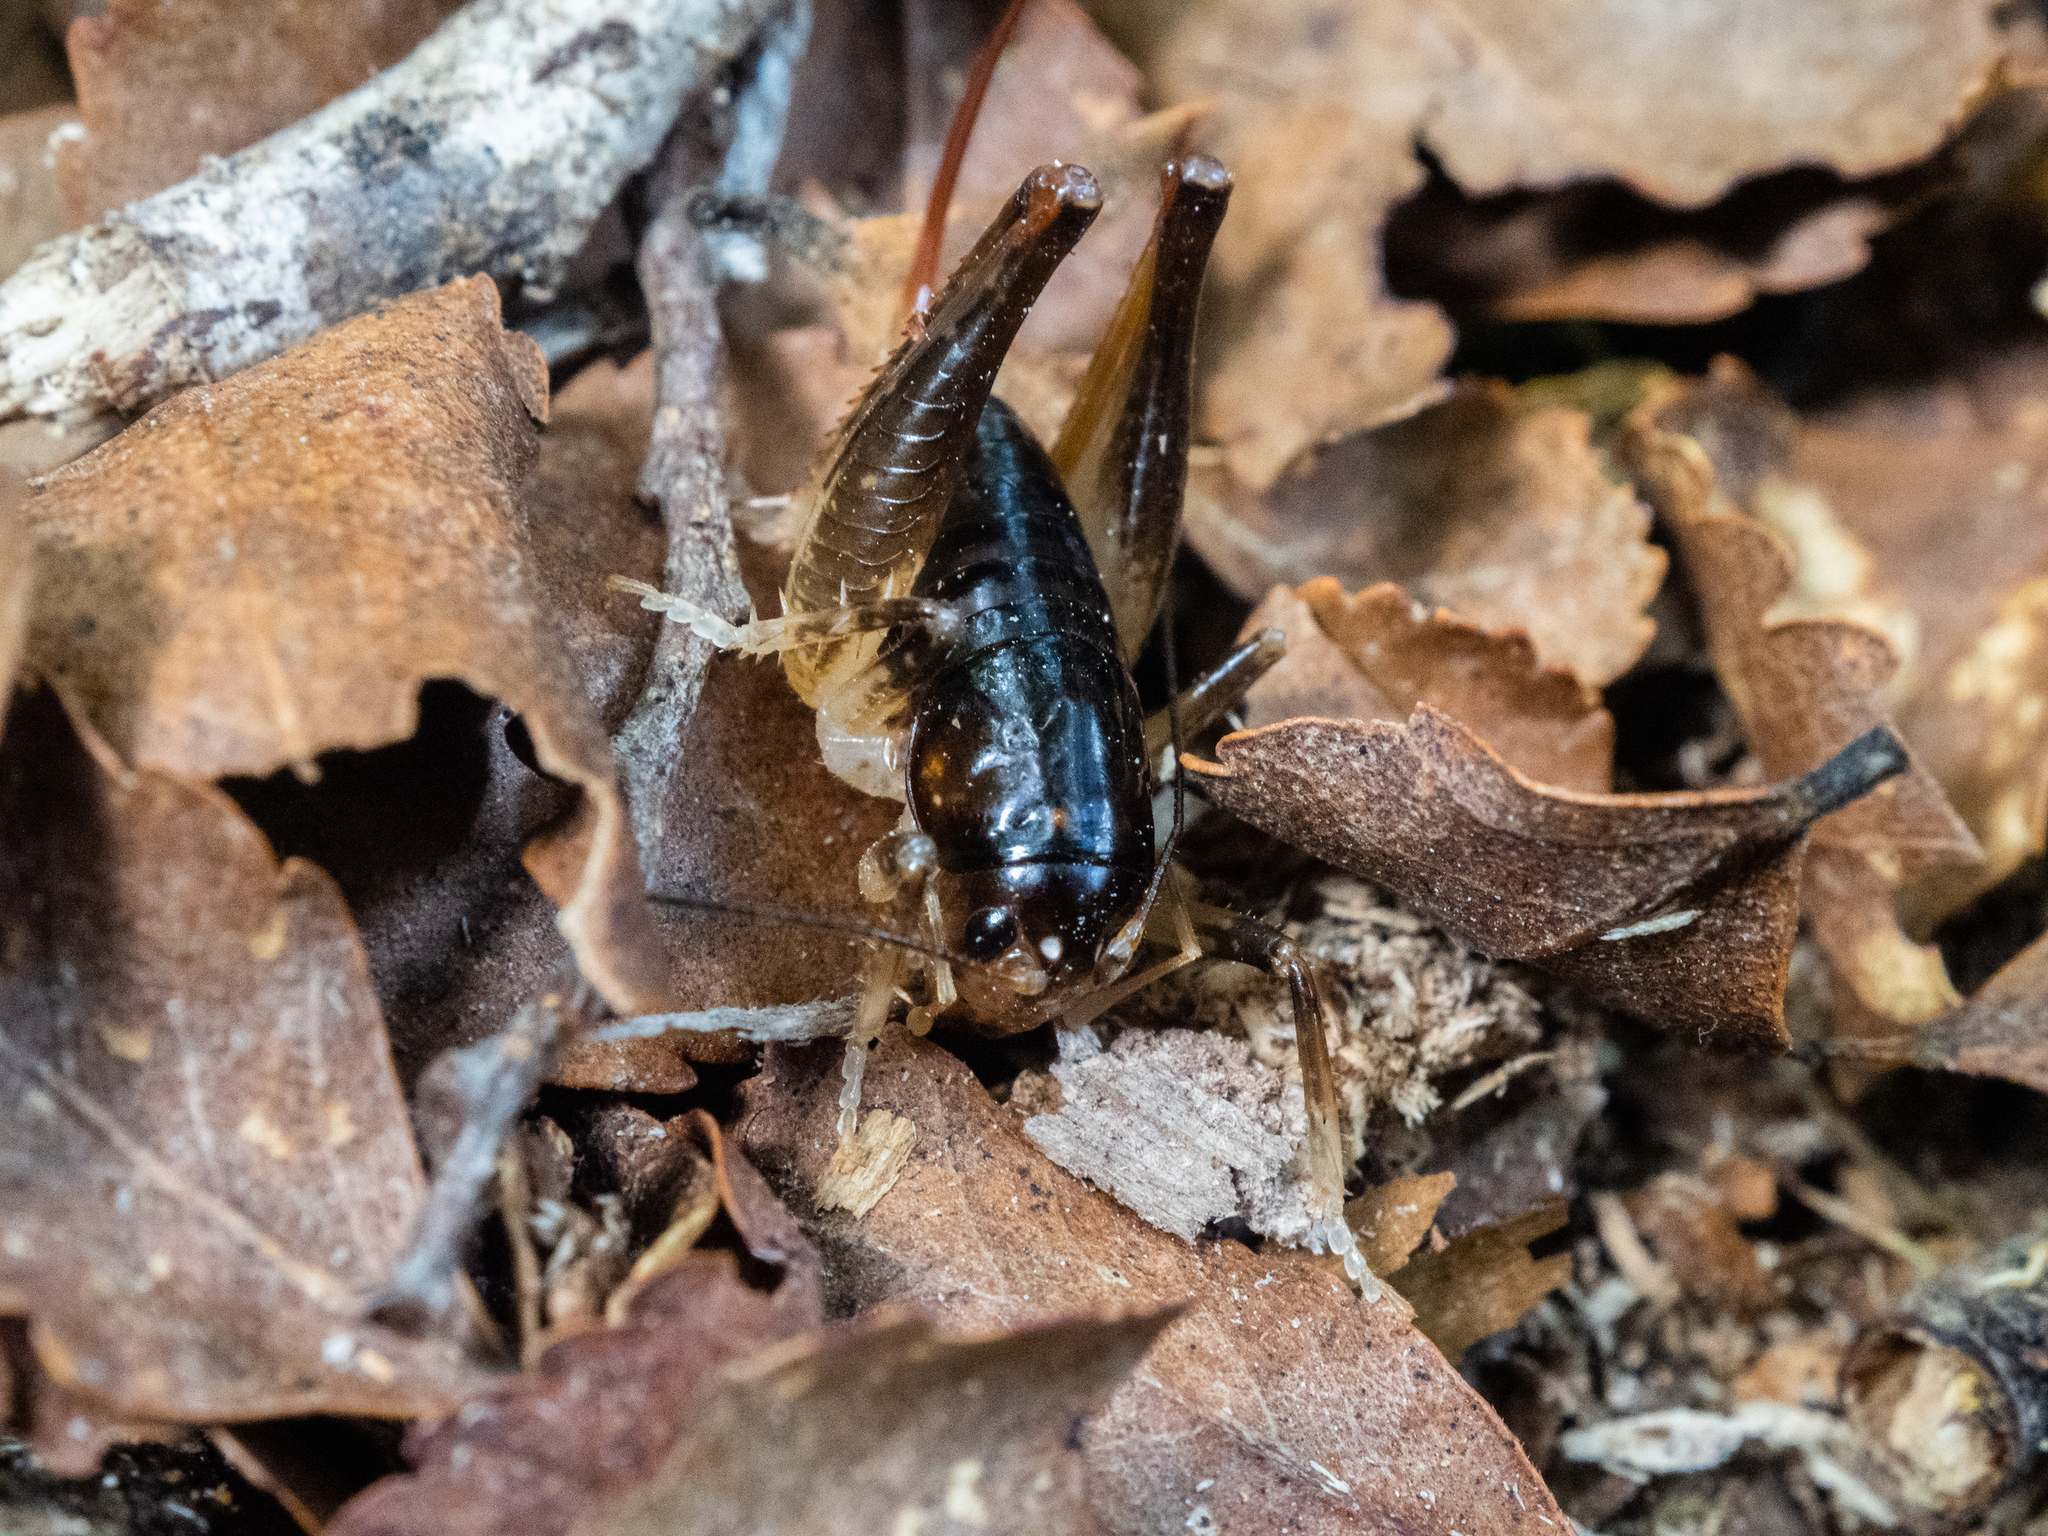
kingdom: Animalia
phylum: Arthropoda
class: Insecta
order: Orthoptera
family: Anostostomatidae
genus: Hemiandrus
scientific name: Hemiandrus nox
